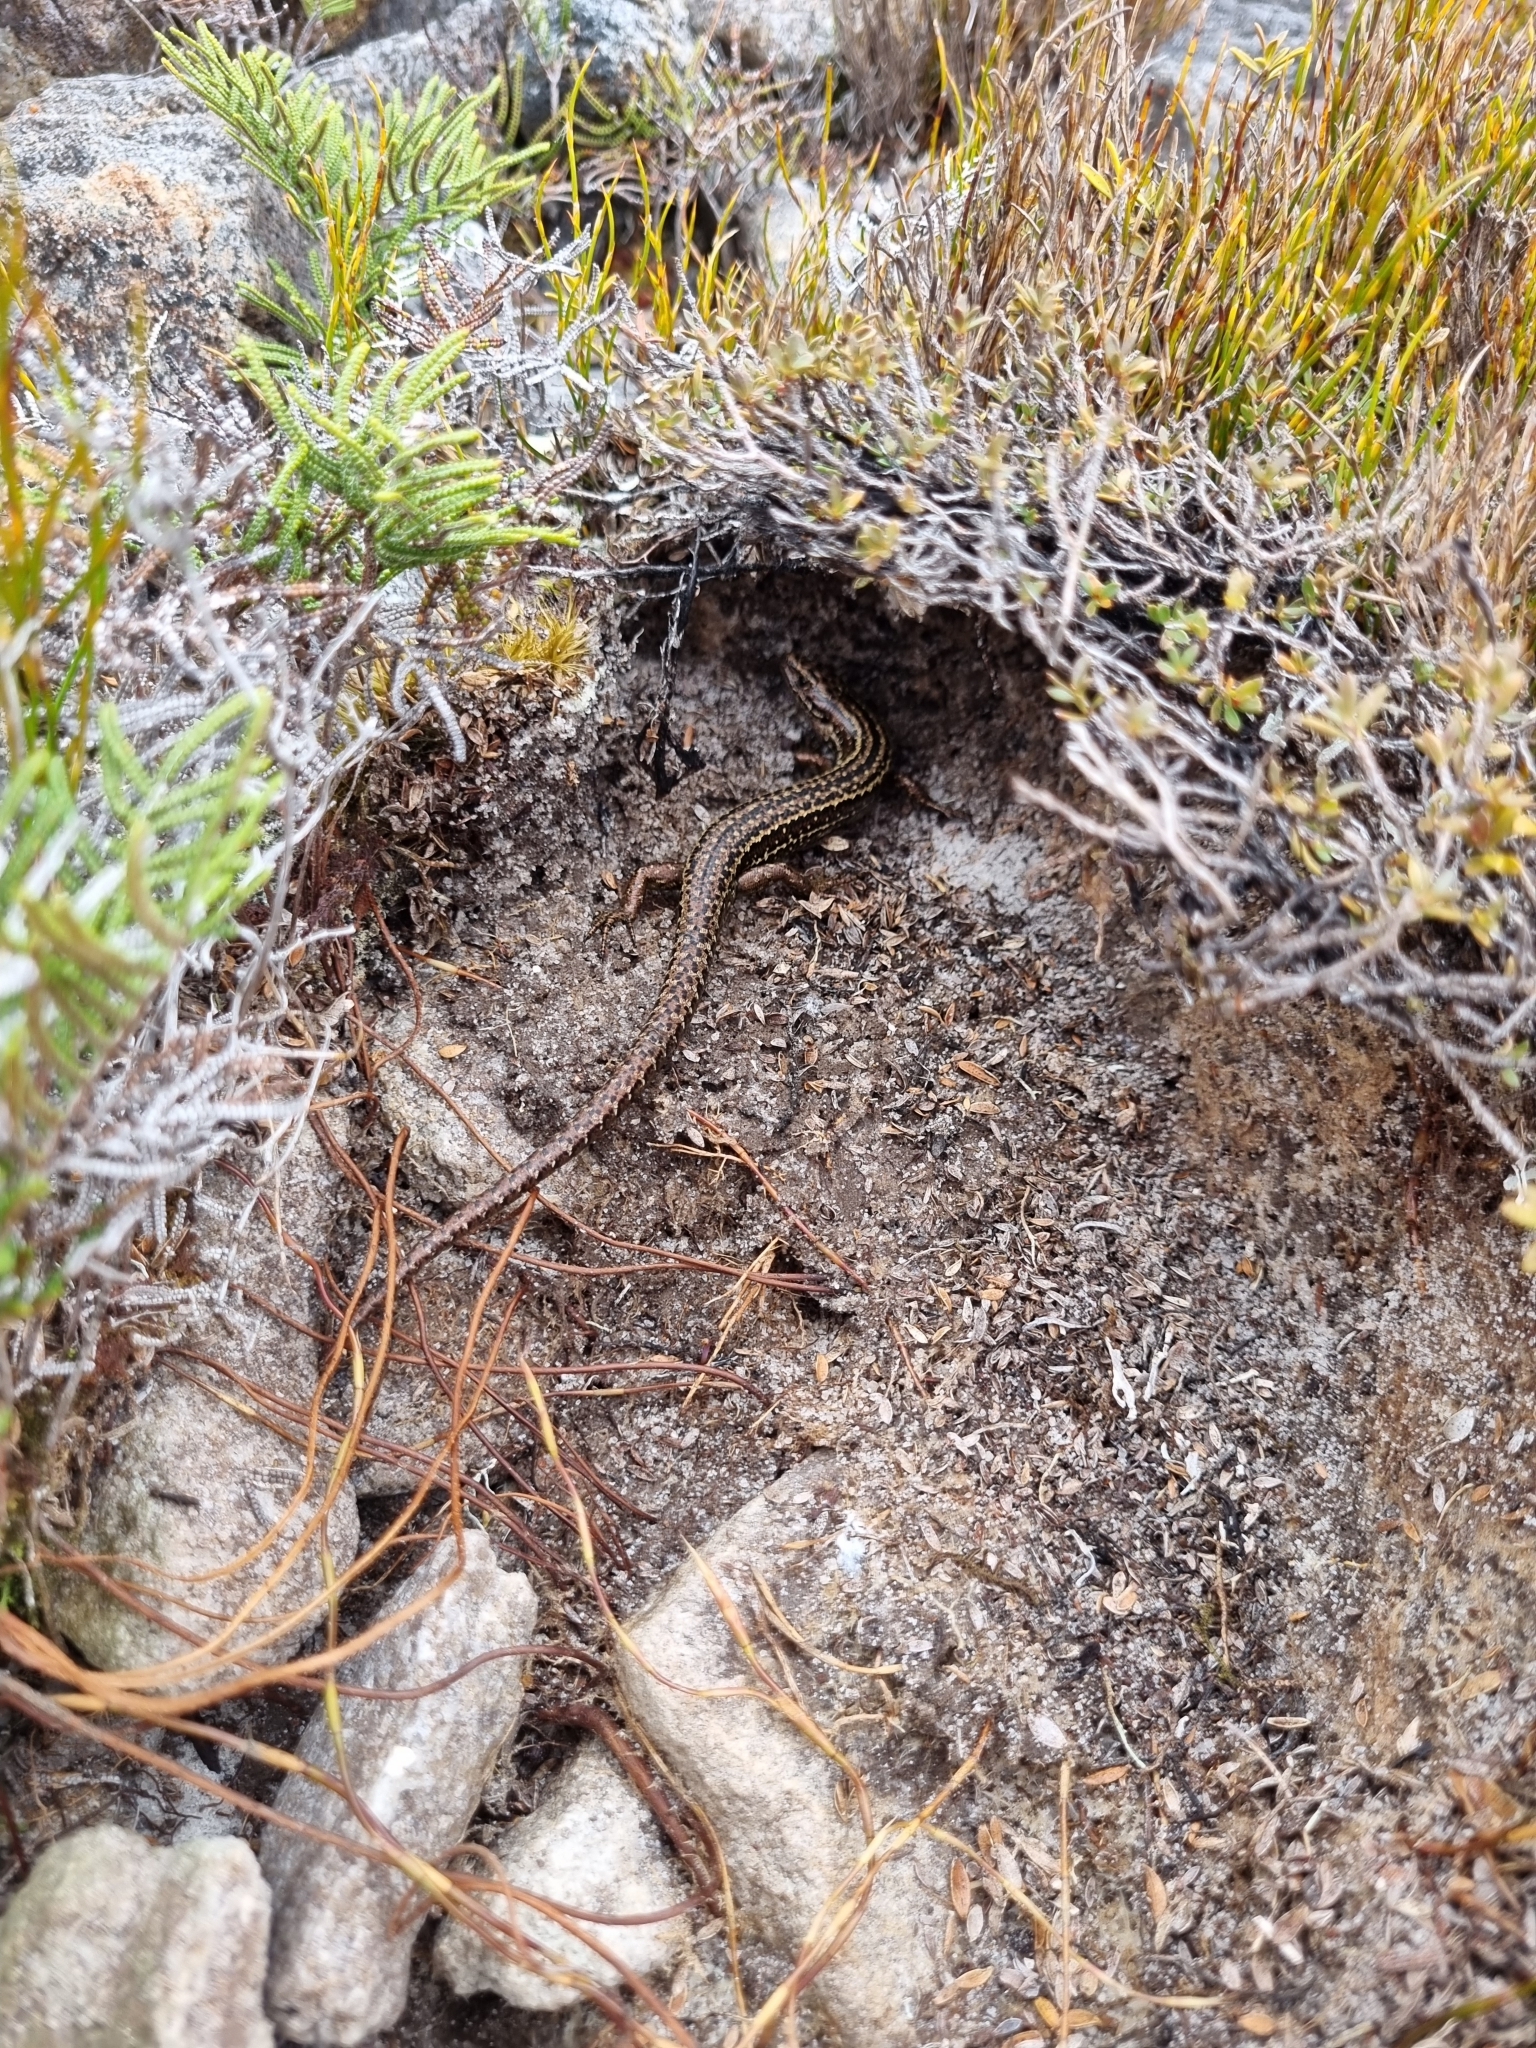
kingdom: Animalia
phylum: Chordata
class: Squamata
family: Scincidae
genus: Oligosoma
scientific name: Oligosoma newmani
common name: Newman’s speckled skink
